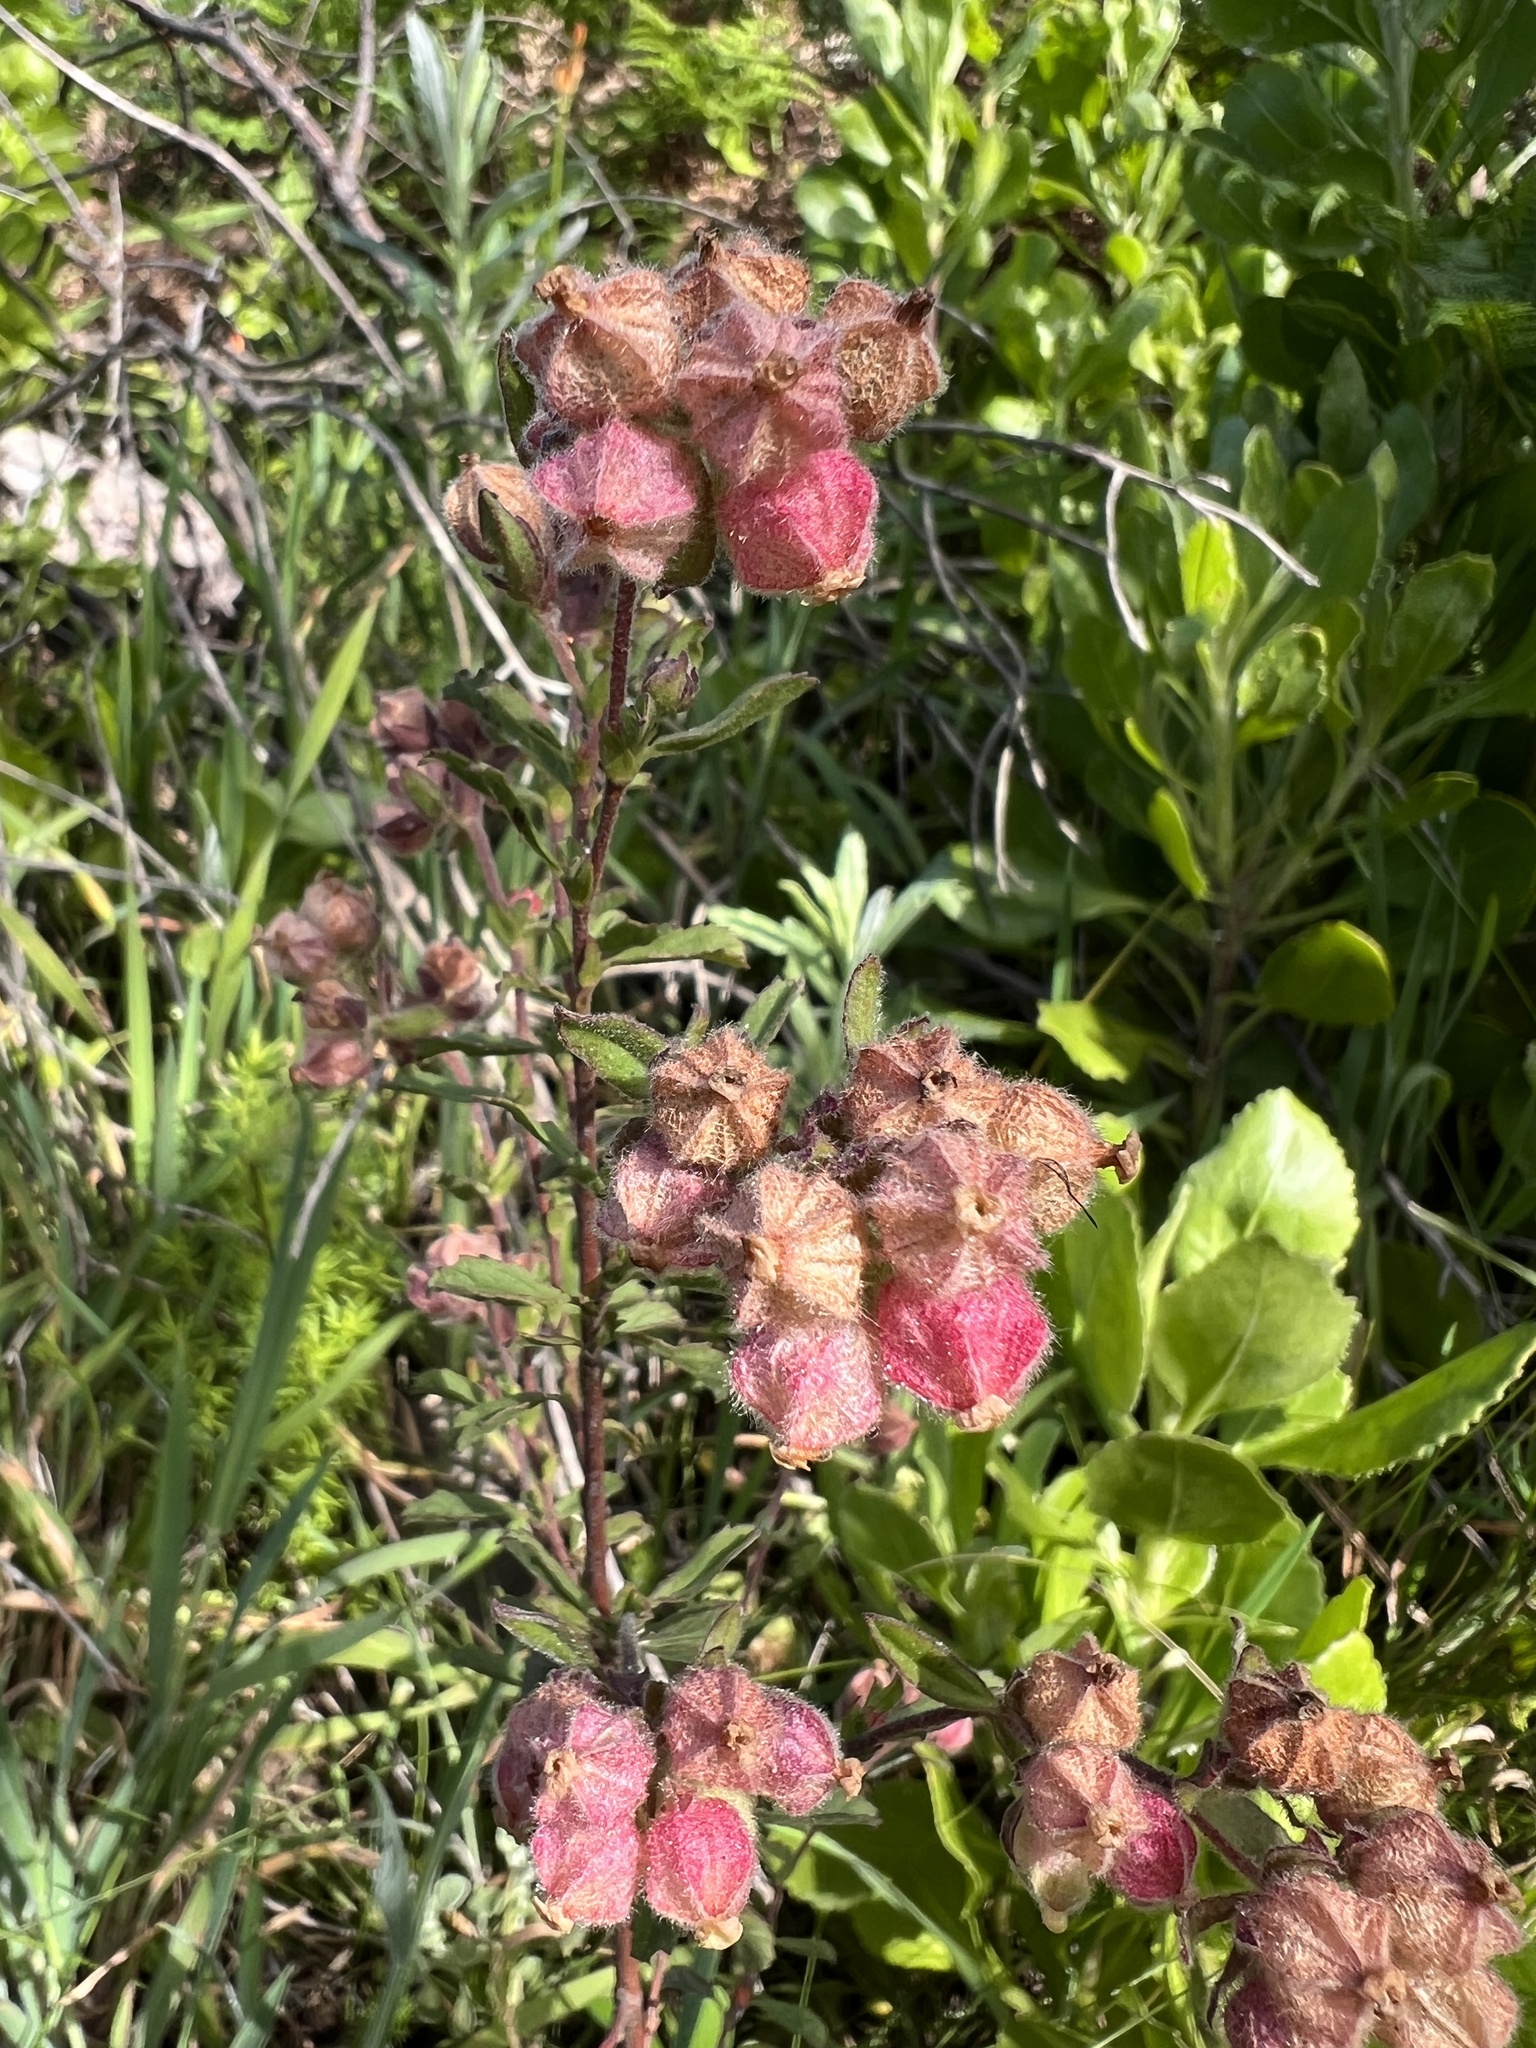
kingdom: Plantae
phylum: Tracheophyta
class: Magnoliopsida
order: Malvales
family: Malvaceae
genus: Hermannia
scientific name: Hermannia hyssopifolia
